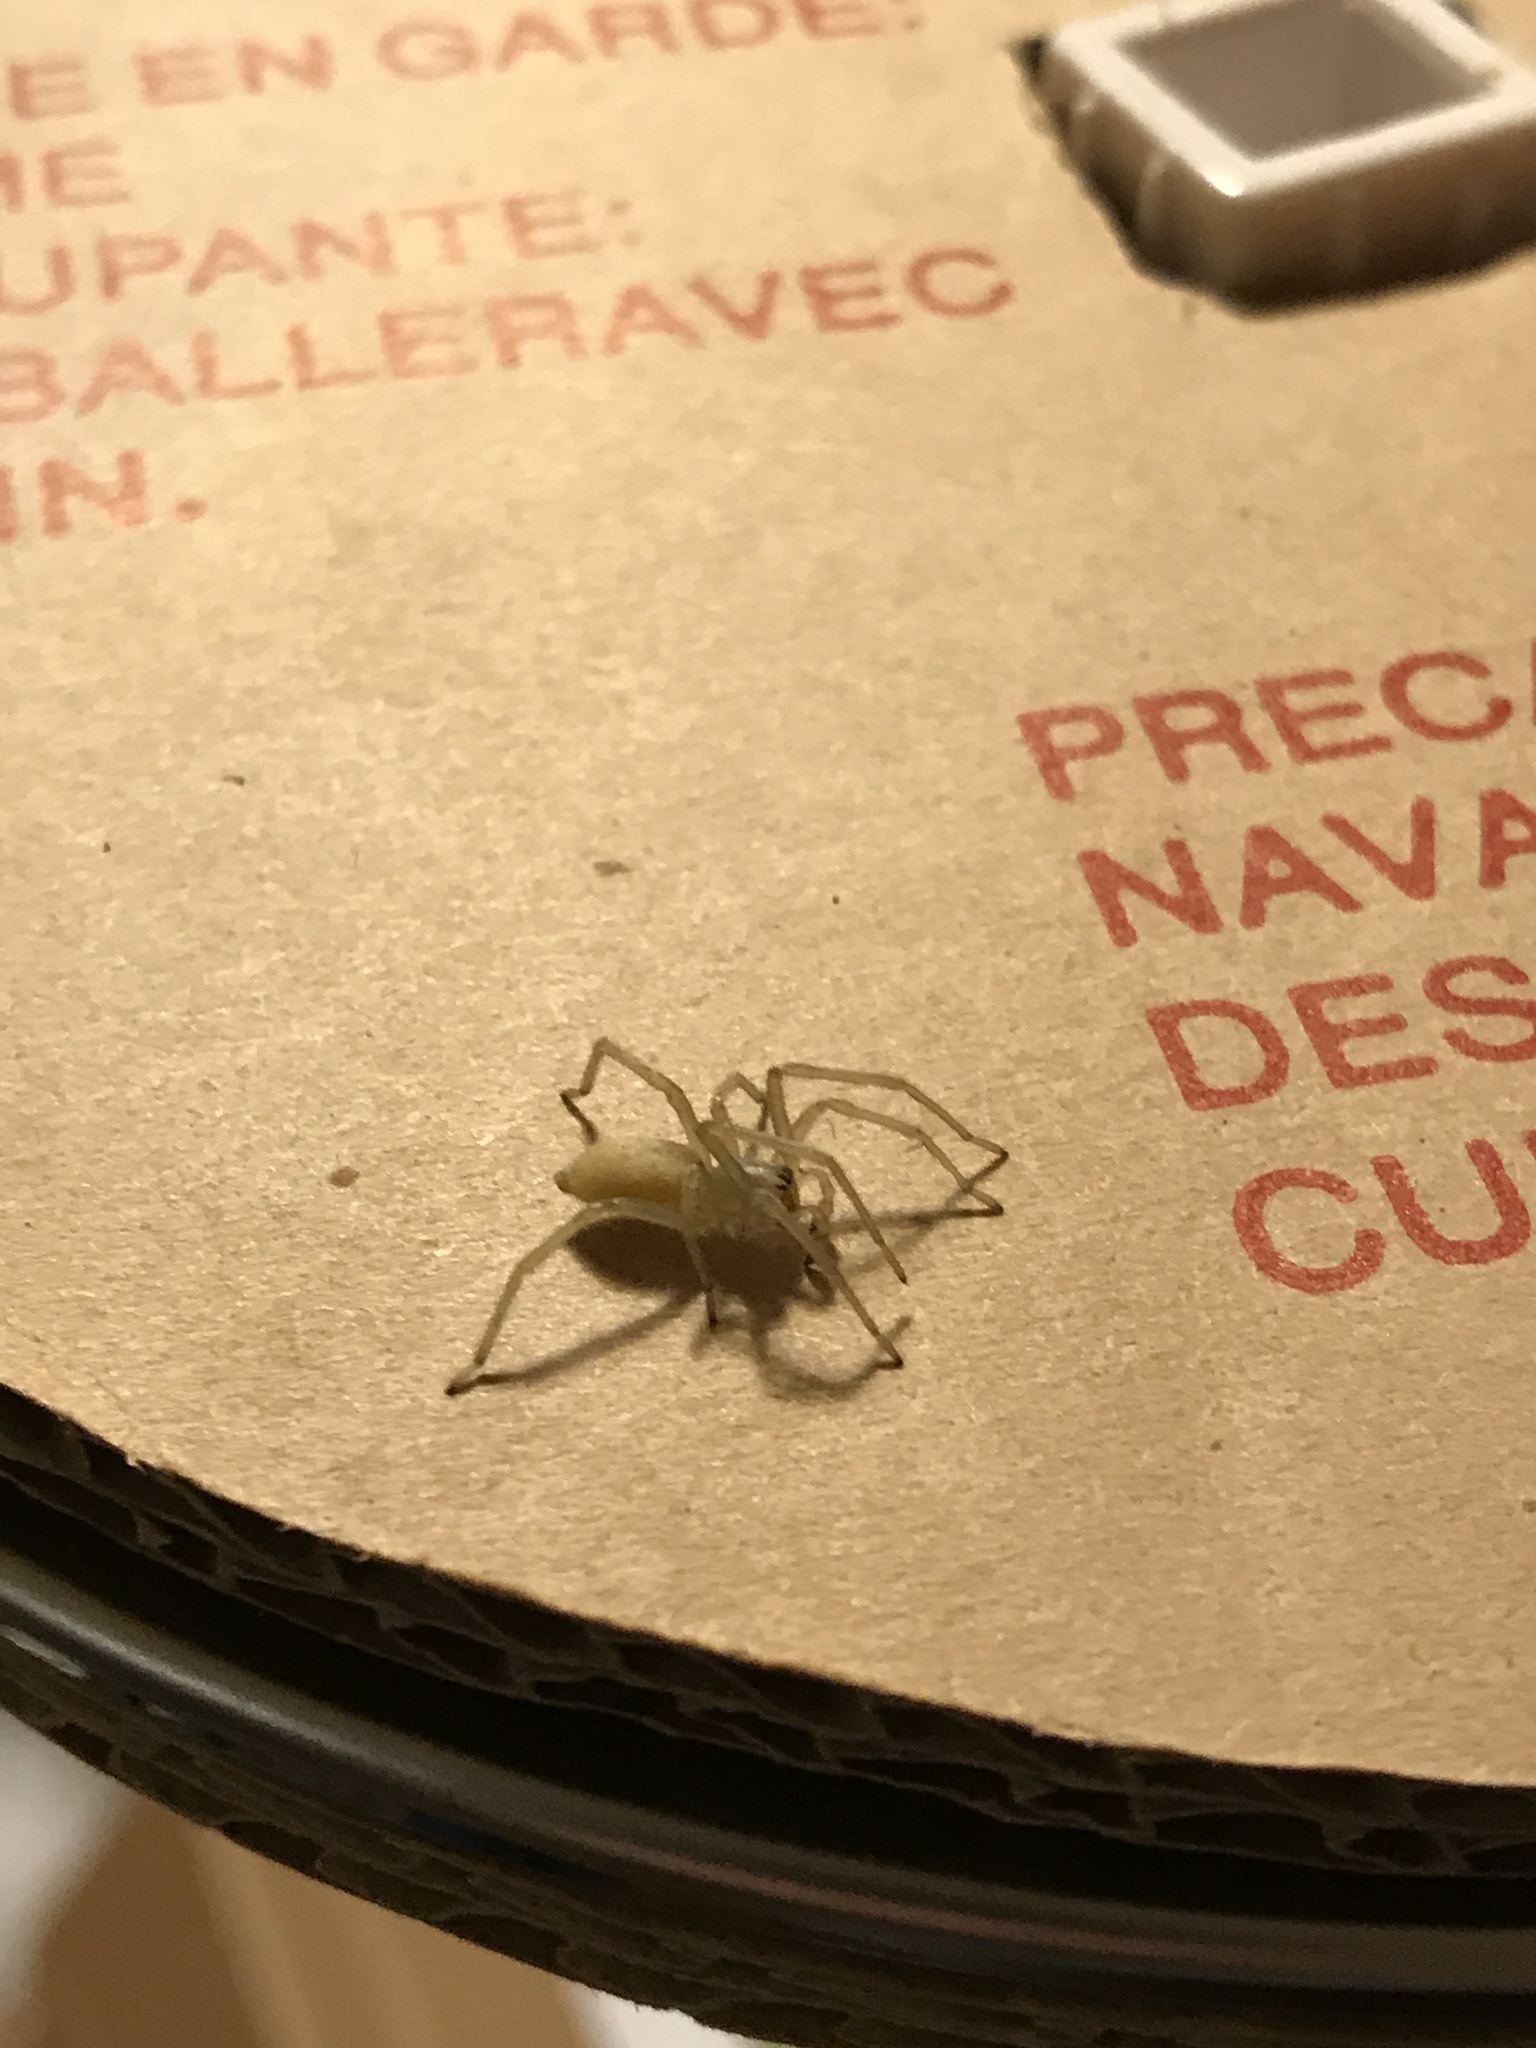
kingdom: Animalia
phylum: Arthropoda
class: Arachnida
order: Araneae
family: Cheiracanthiidae
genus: Cheiracanthium
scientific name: Cheiracanthium mildei
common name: Northern yellow sac spider
